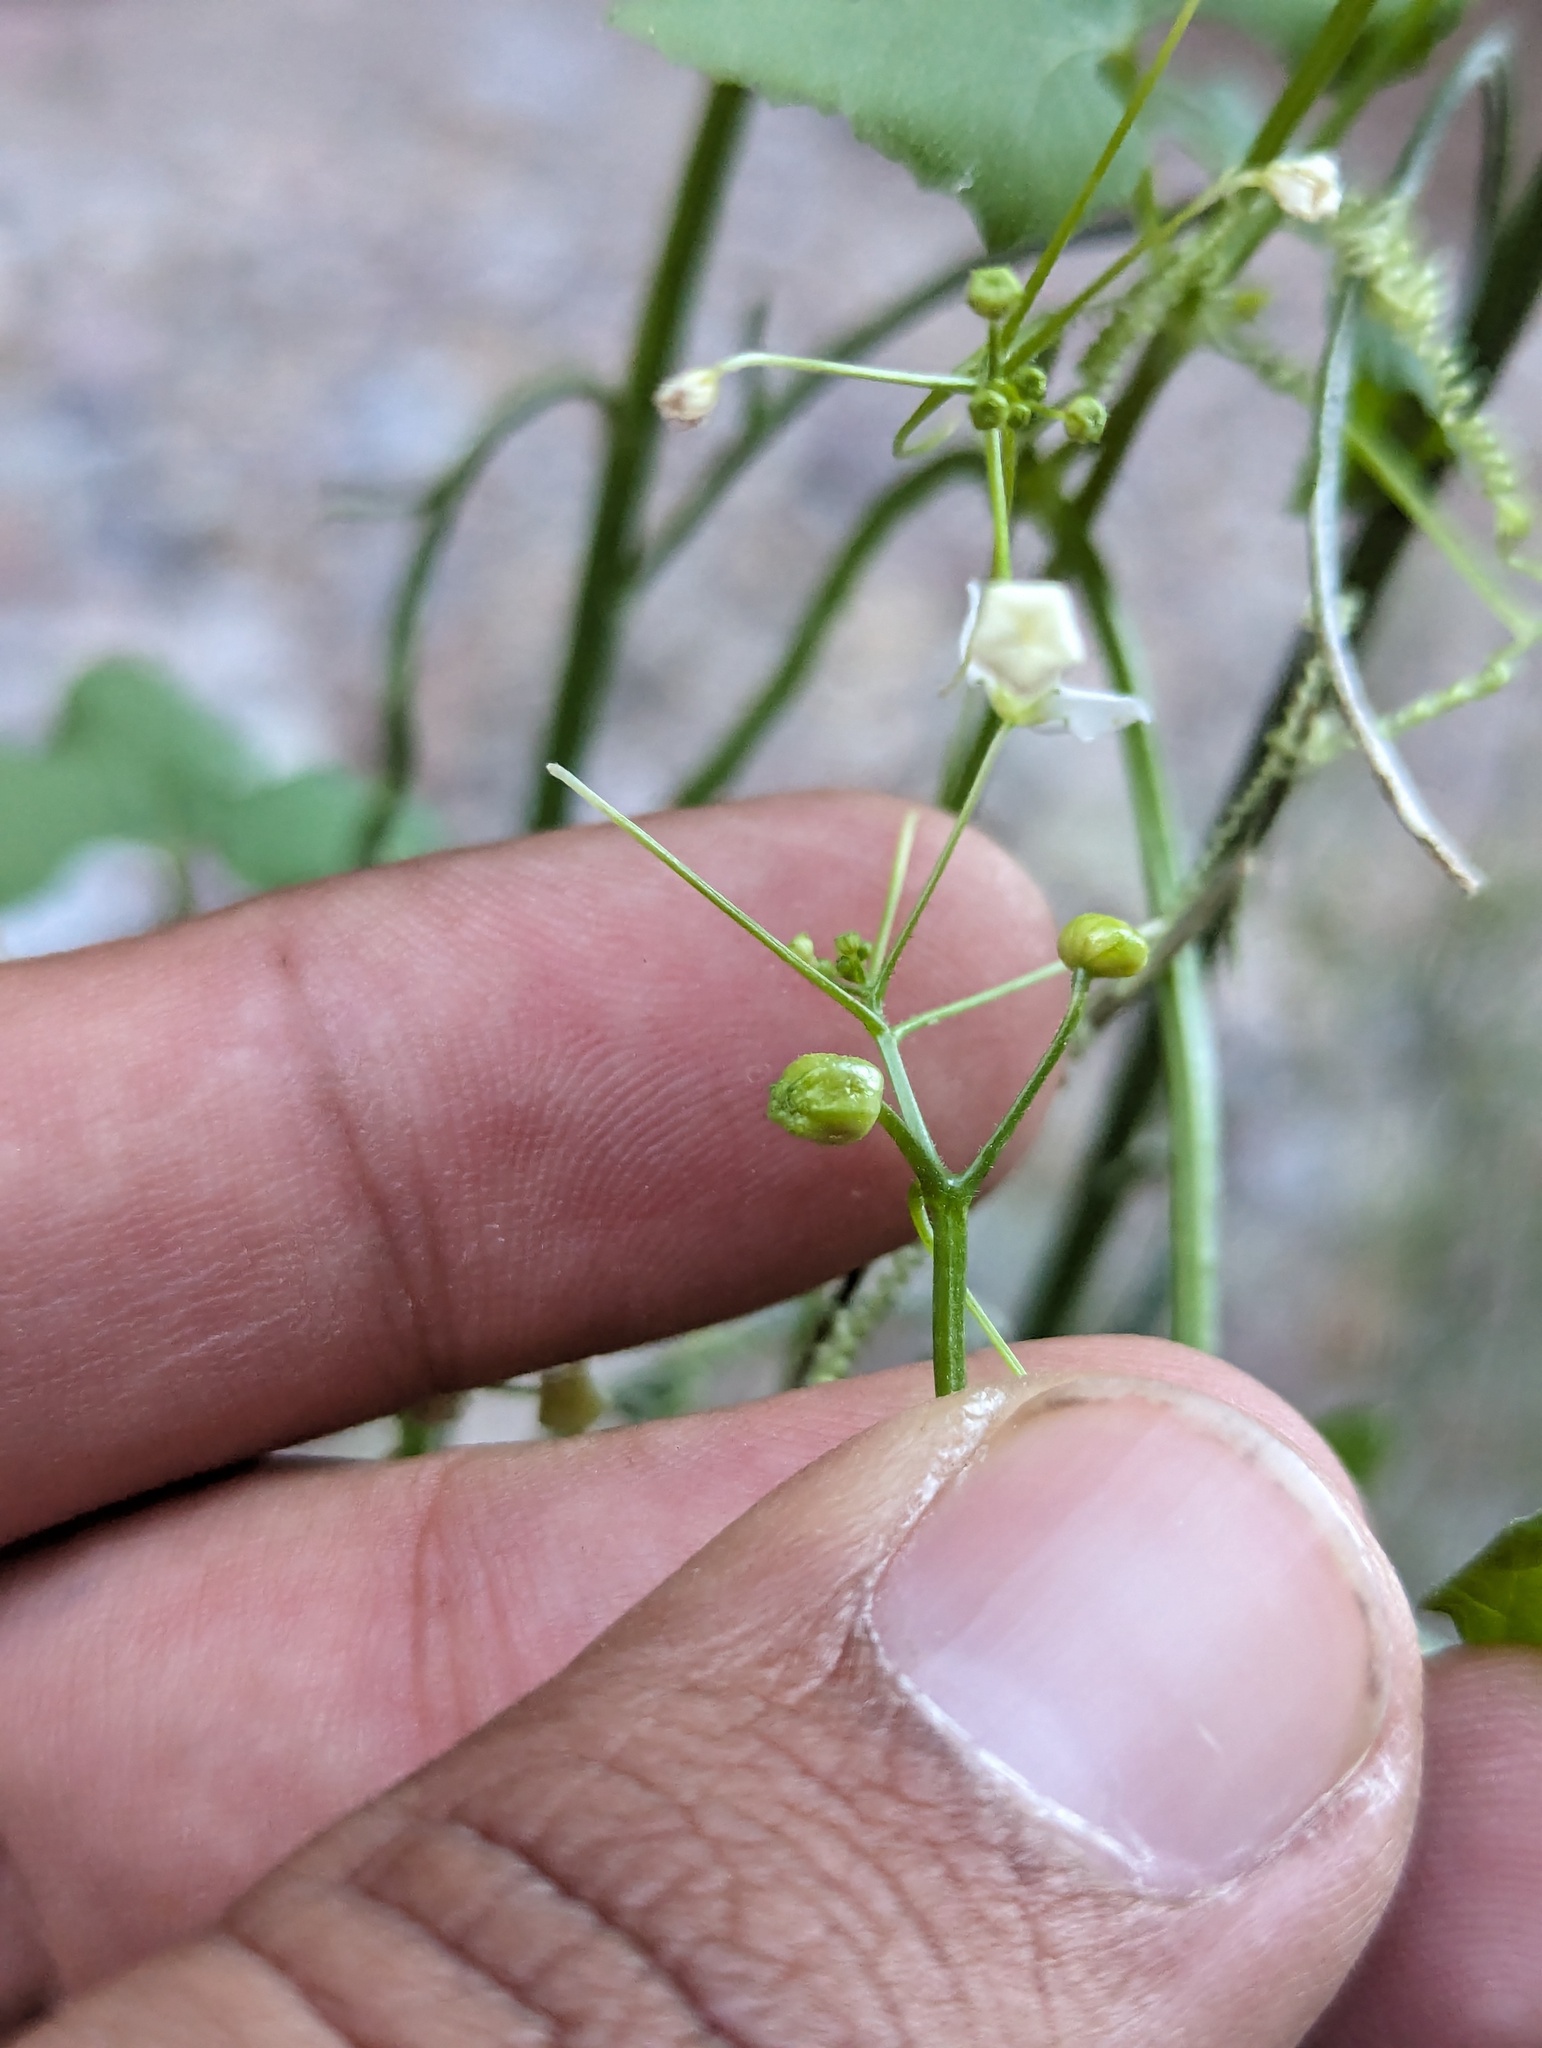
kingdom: Plantae
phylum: Tracheophyta
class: Magnoliopsida
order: Cucurbitales
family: Cucurbitaceae
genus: Echinopepon
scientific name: Echinopepon minimus
